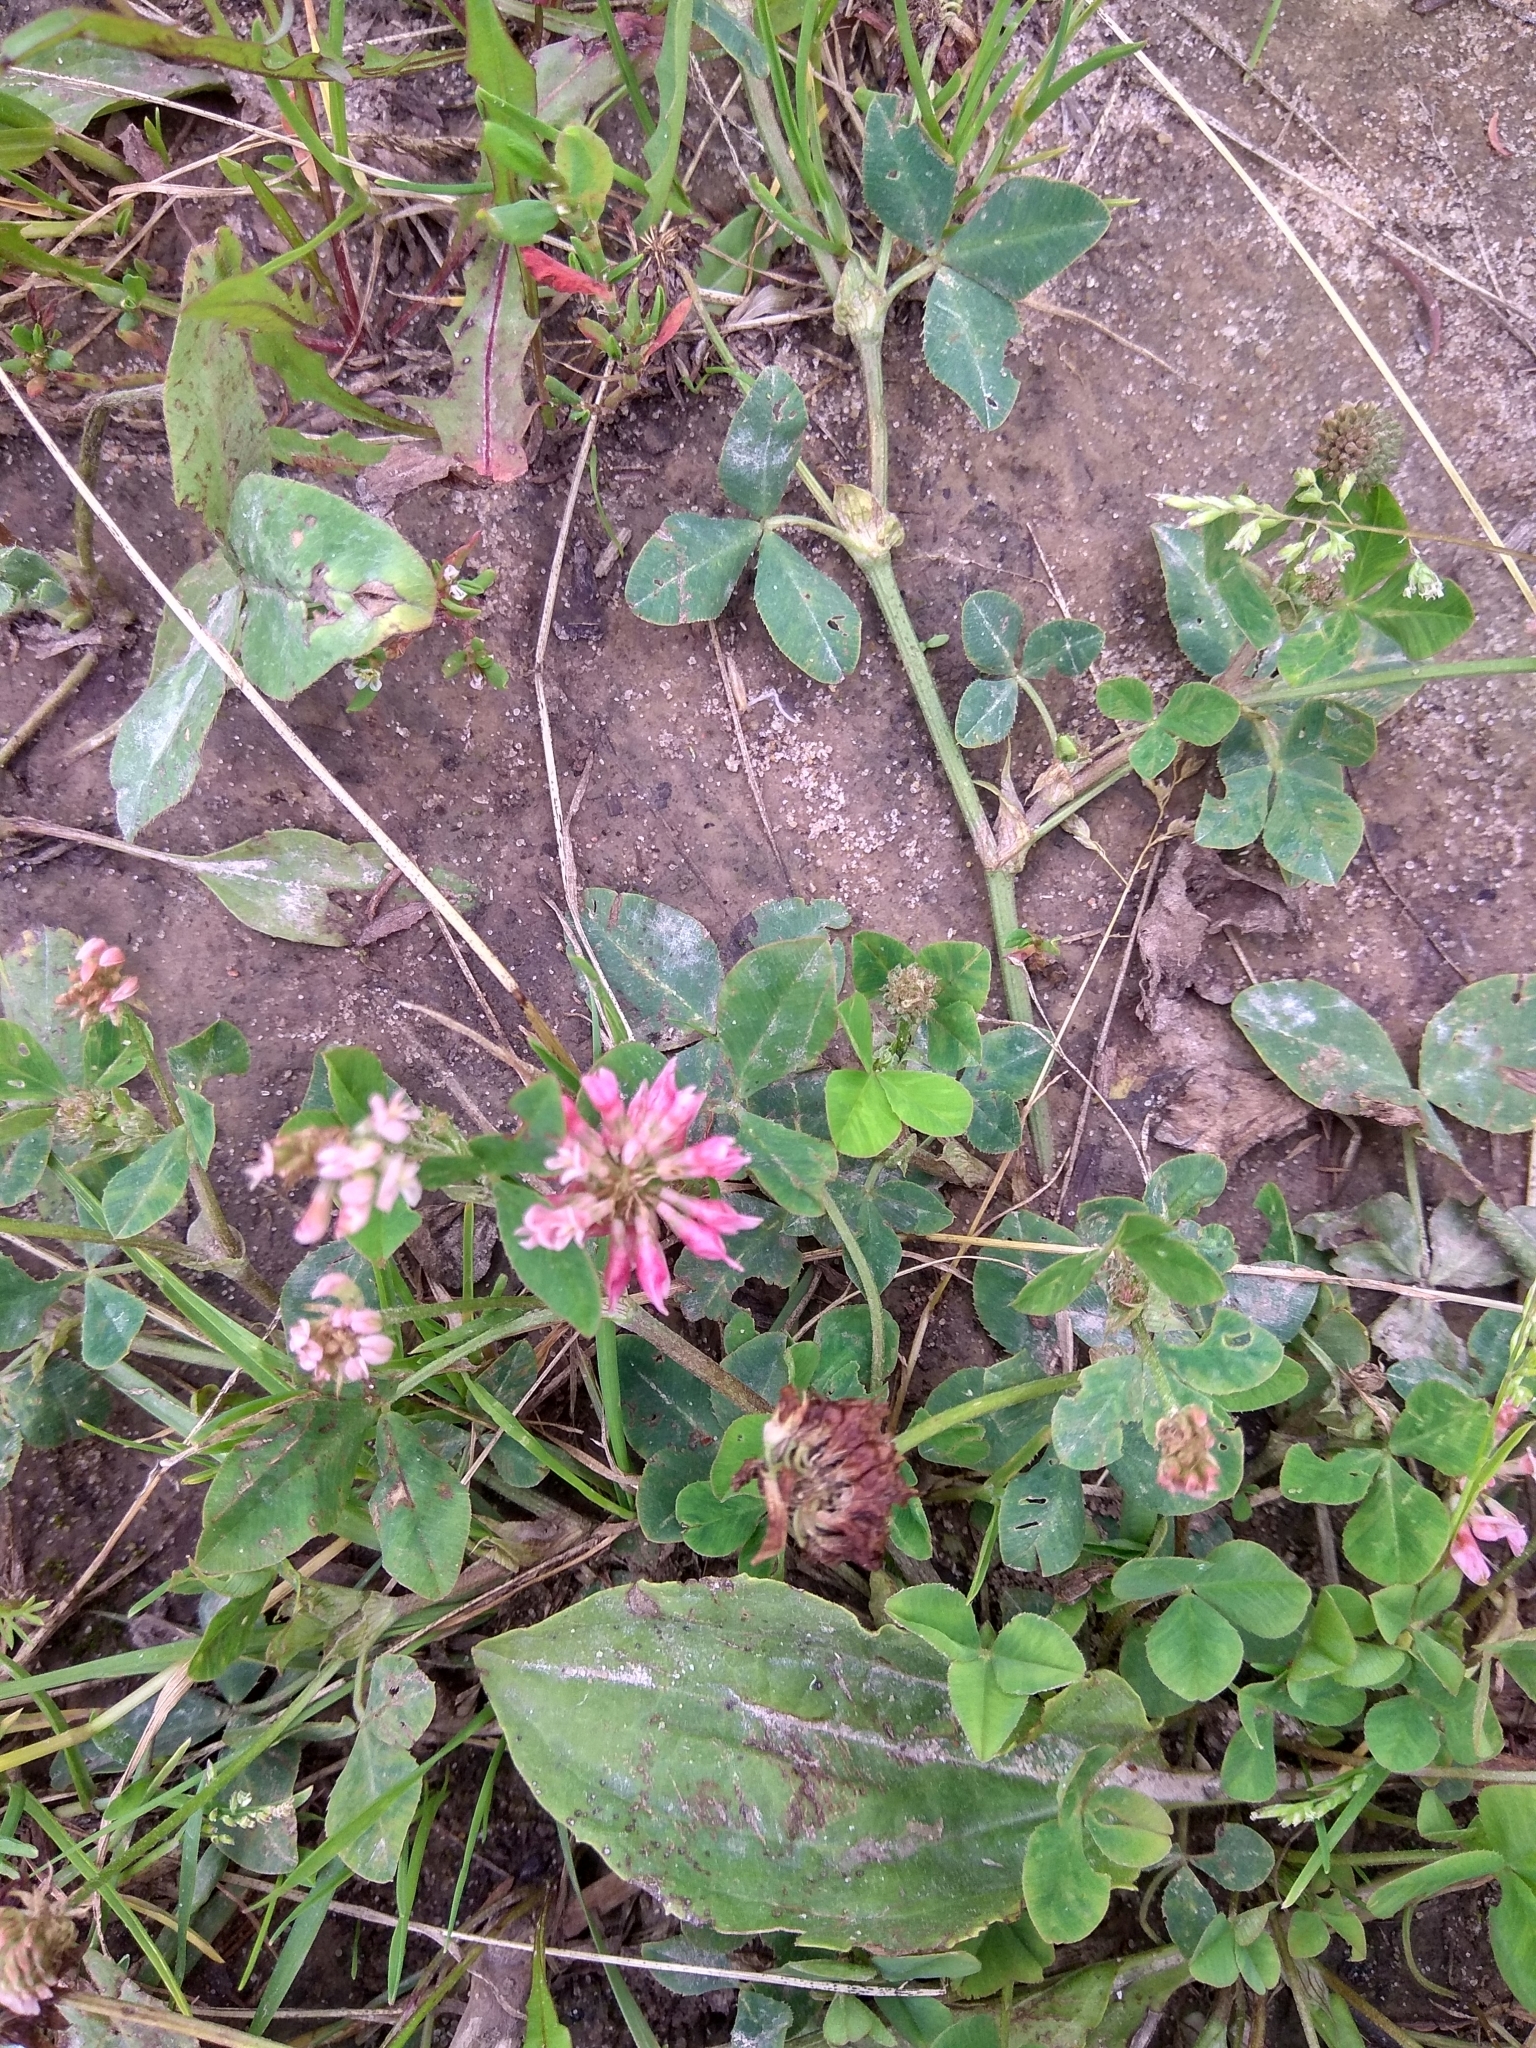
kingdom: Plantae
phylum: Tracheophyta
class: Magnoliopsida
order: Fabales
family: Fabaceae
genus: Trifolium
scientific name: Trifolium hybridum
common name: Alsike clover
